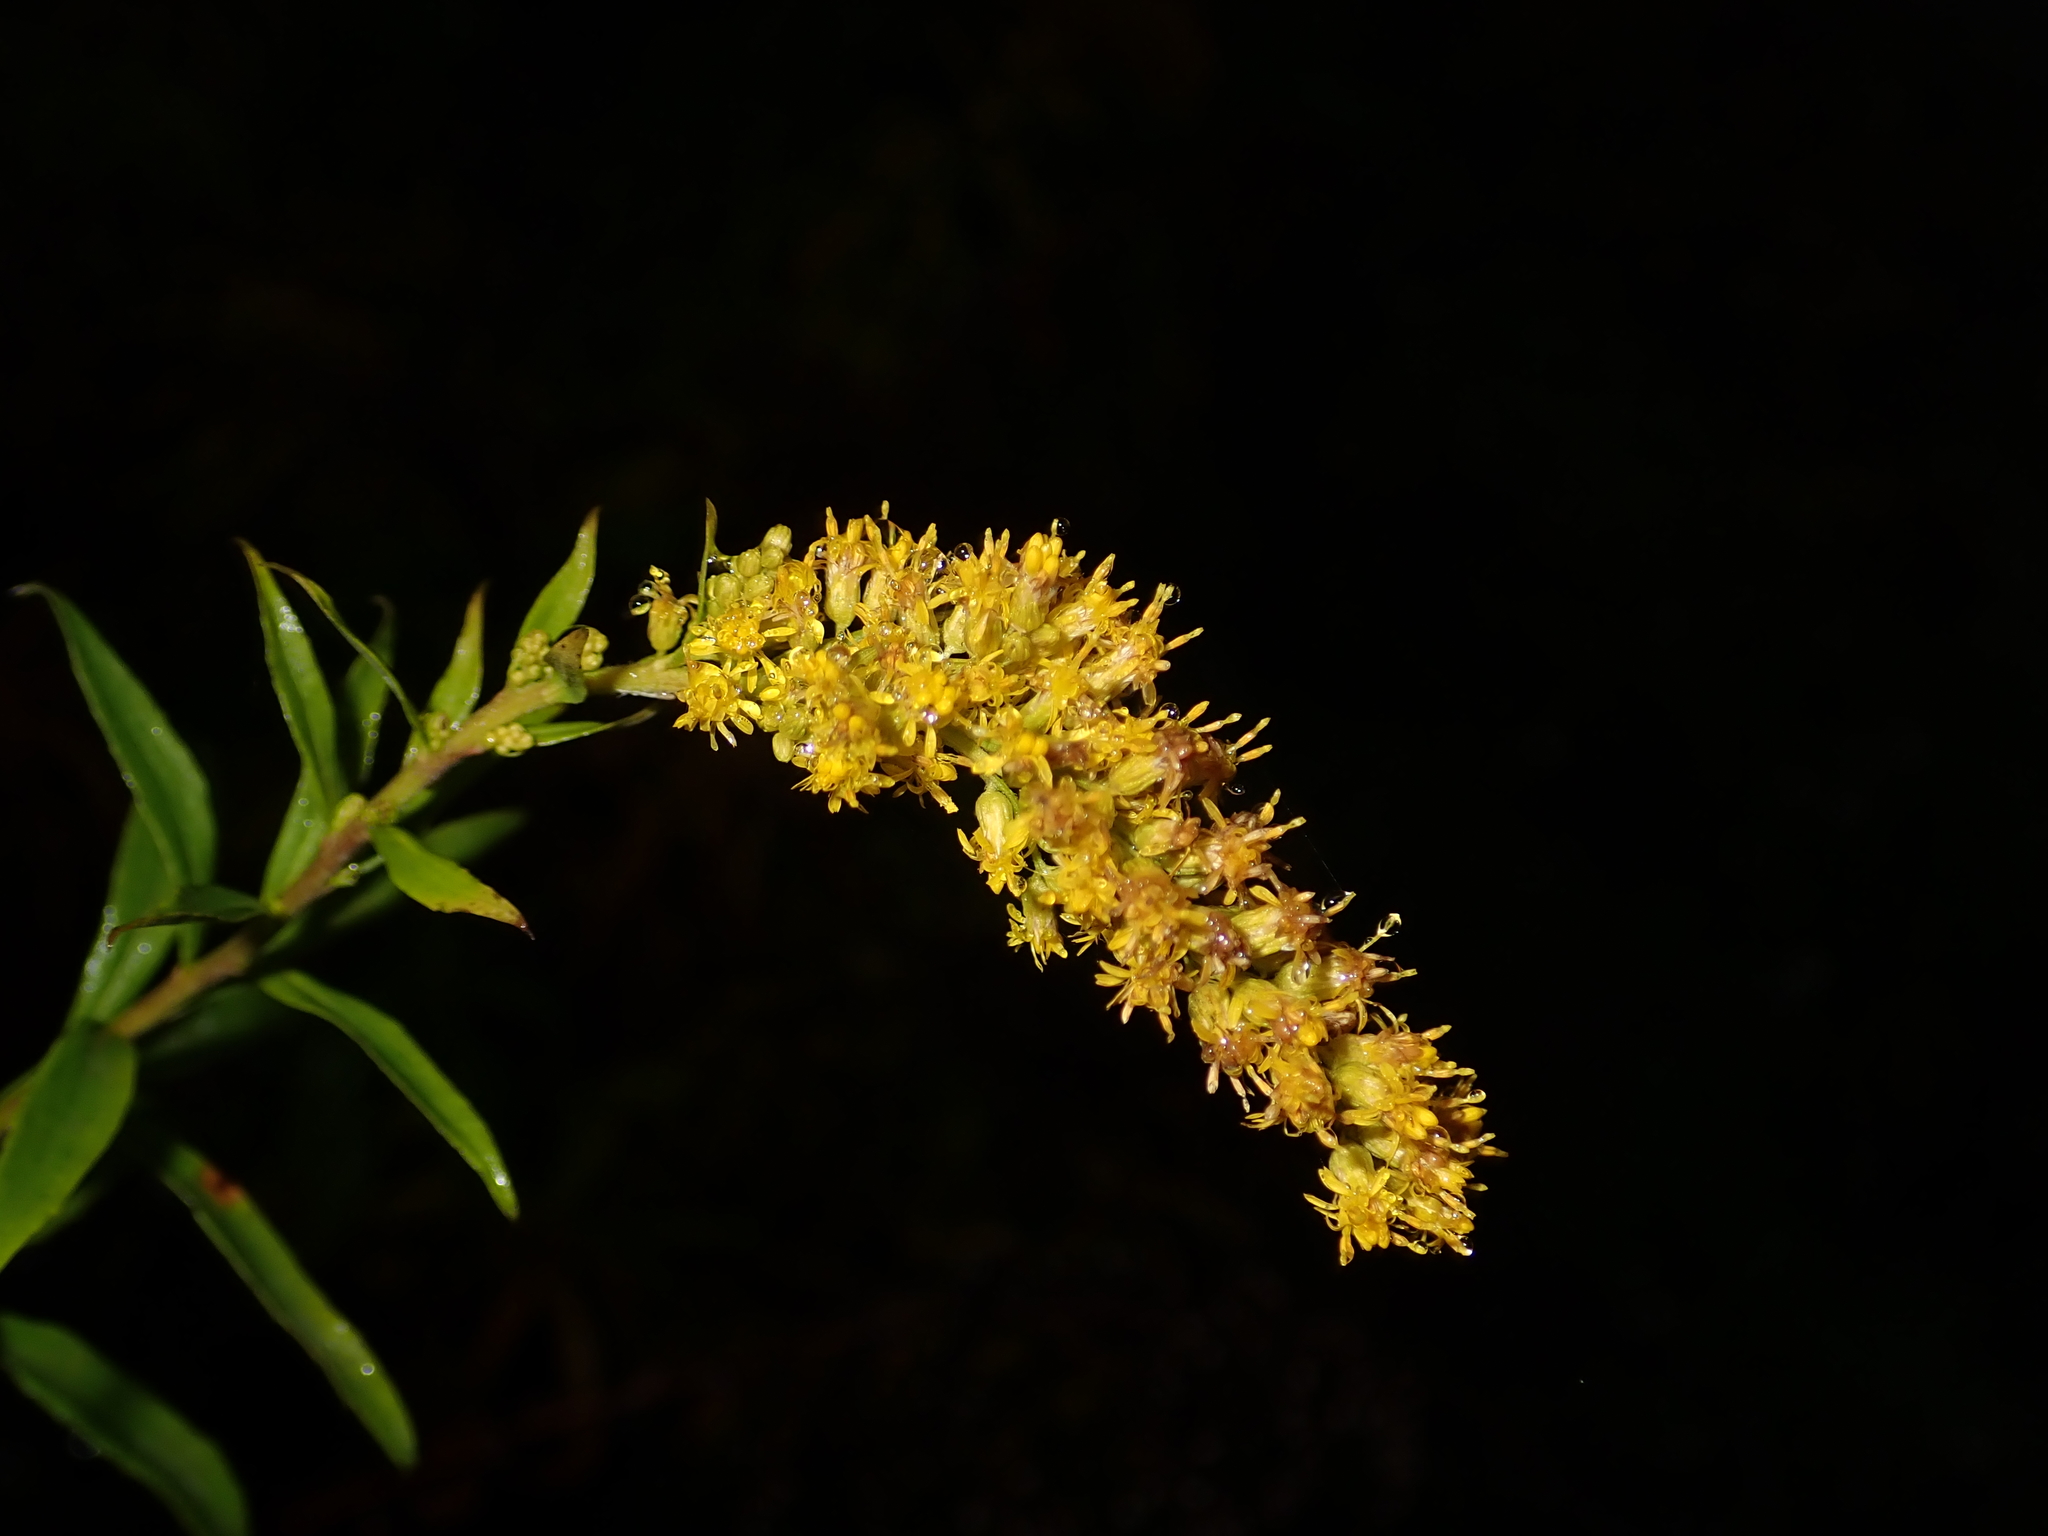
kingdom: Plantae
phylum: Tracheophyta
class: Magnoliopsida
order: Asterales
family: Asteraceae
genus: Solidago
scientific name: Solidago canadensis
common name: Canada goldenrod
